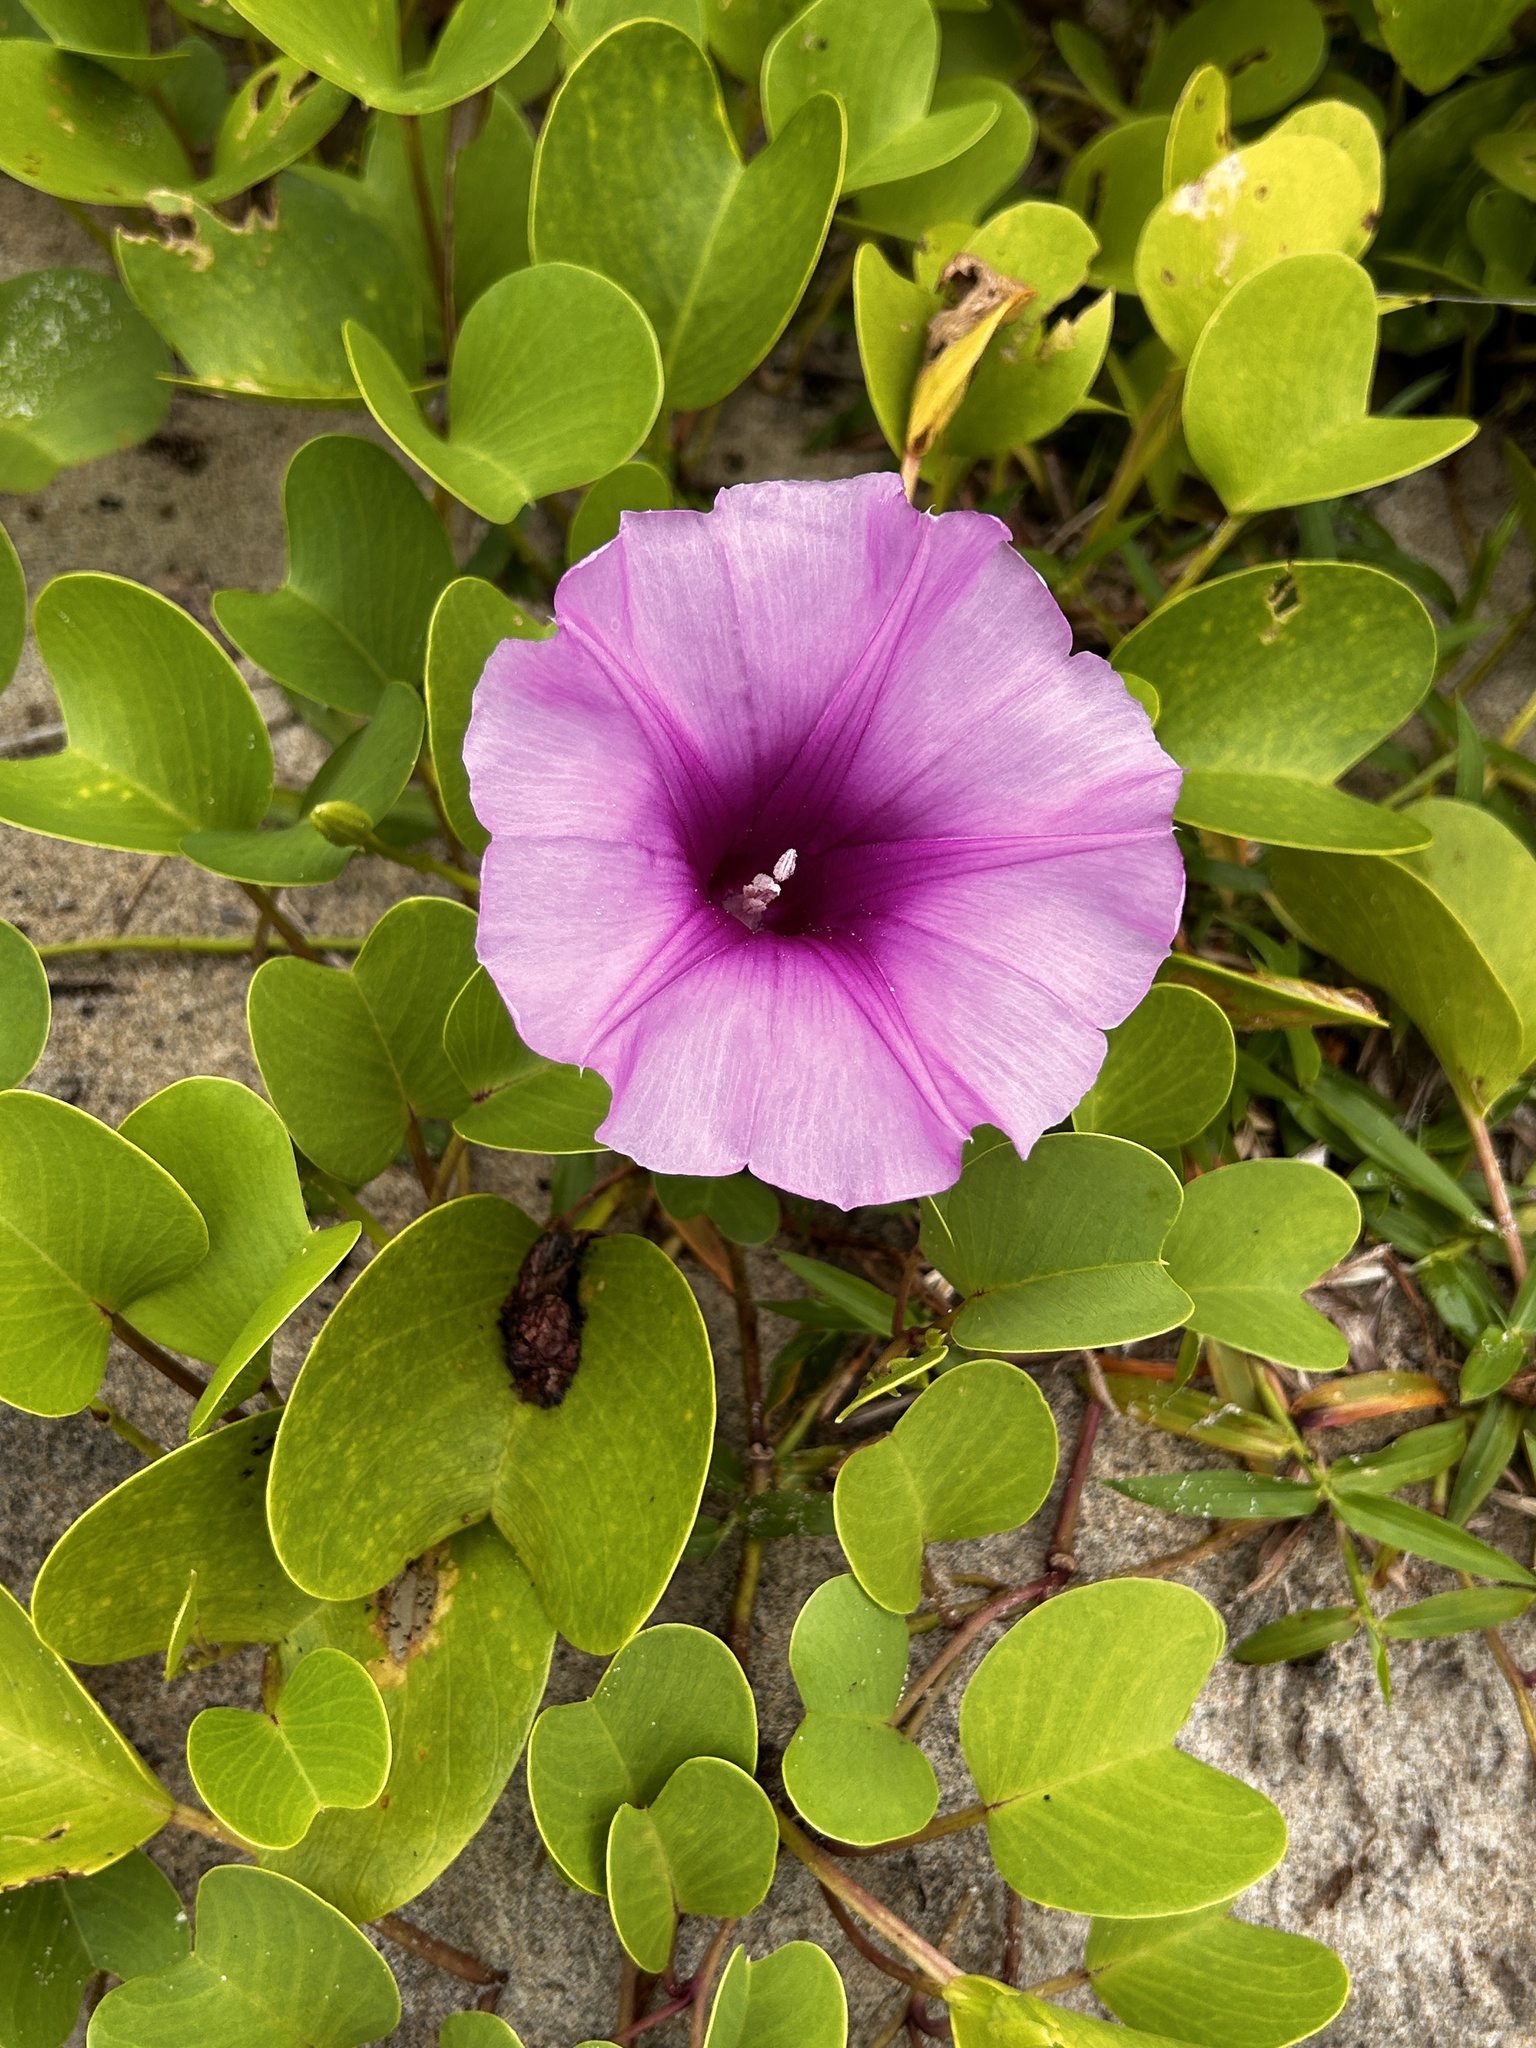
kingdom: Plantae
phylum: Tracheophyta
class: Magnoliopsida
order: Solanales
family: Convolvulaceae
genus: Ipomoea
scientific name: Ipomoea pes-caprae
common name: Beach morning glory
